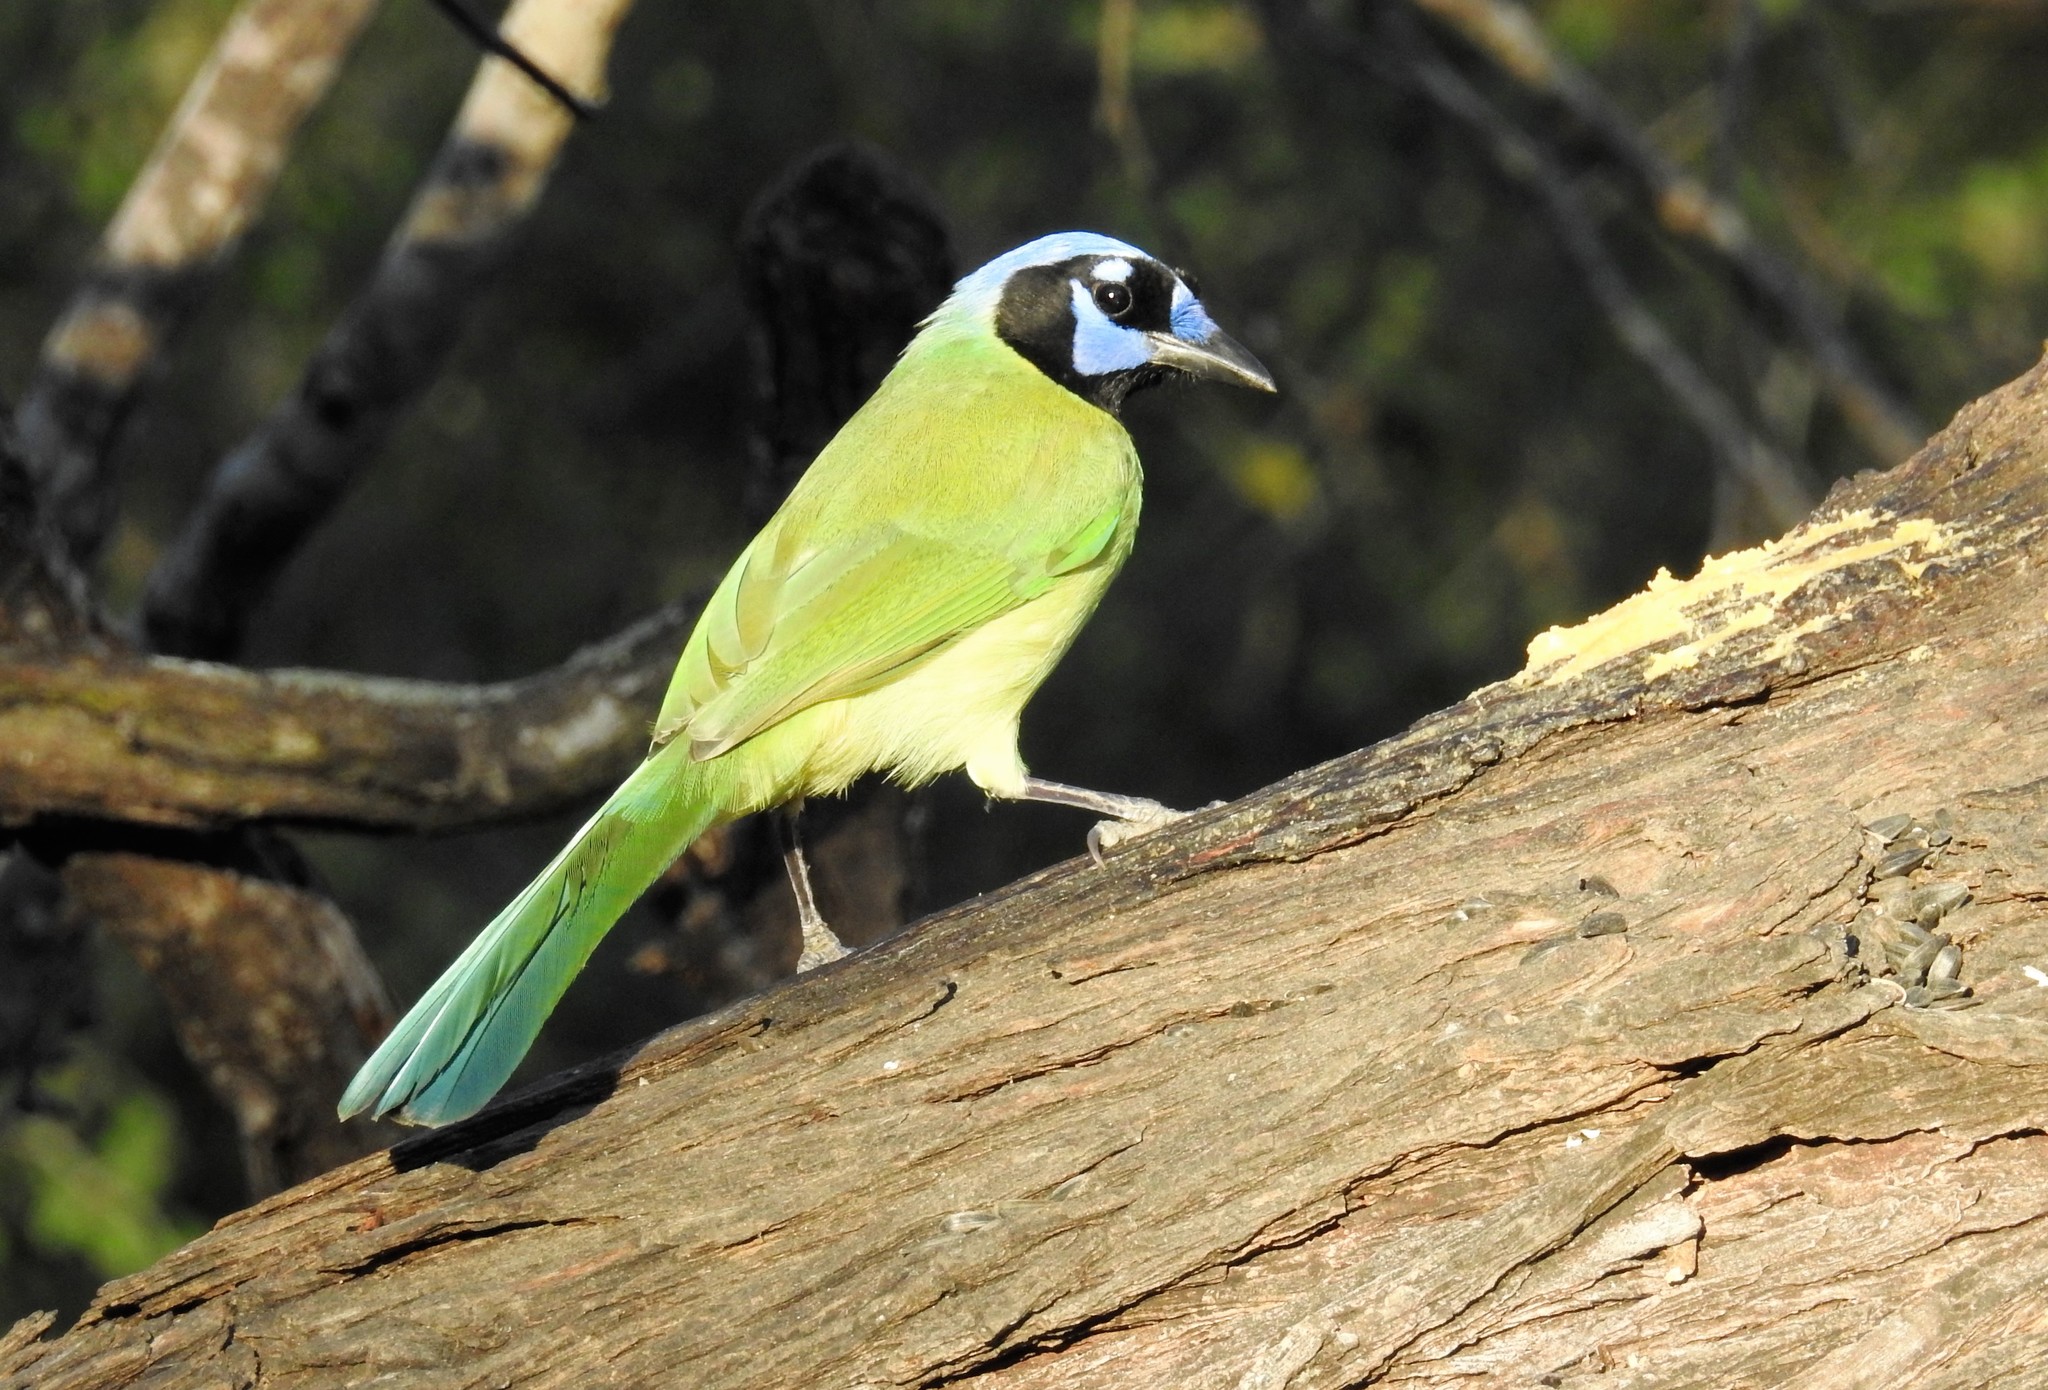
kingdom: Animalia
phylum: Chordata
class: Aves
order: Passeriformes
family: Corvidae
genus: Cyanocorax
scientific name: Cyanocorax yncas
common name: Green jay
